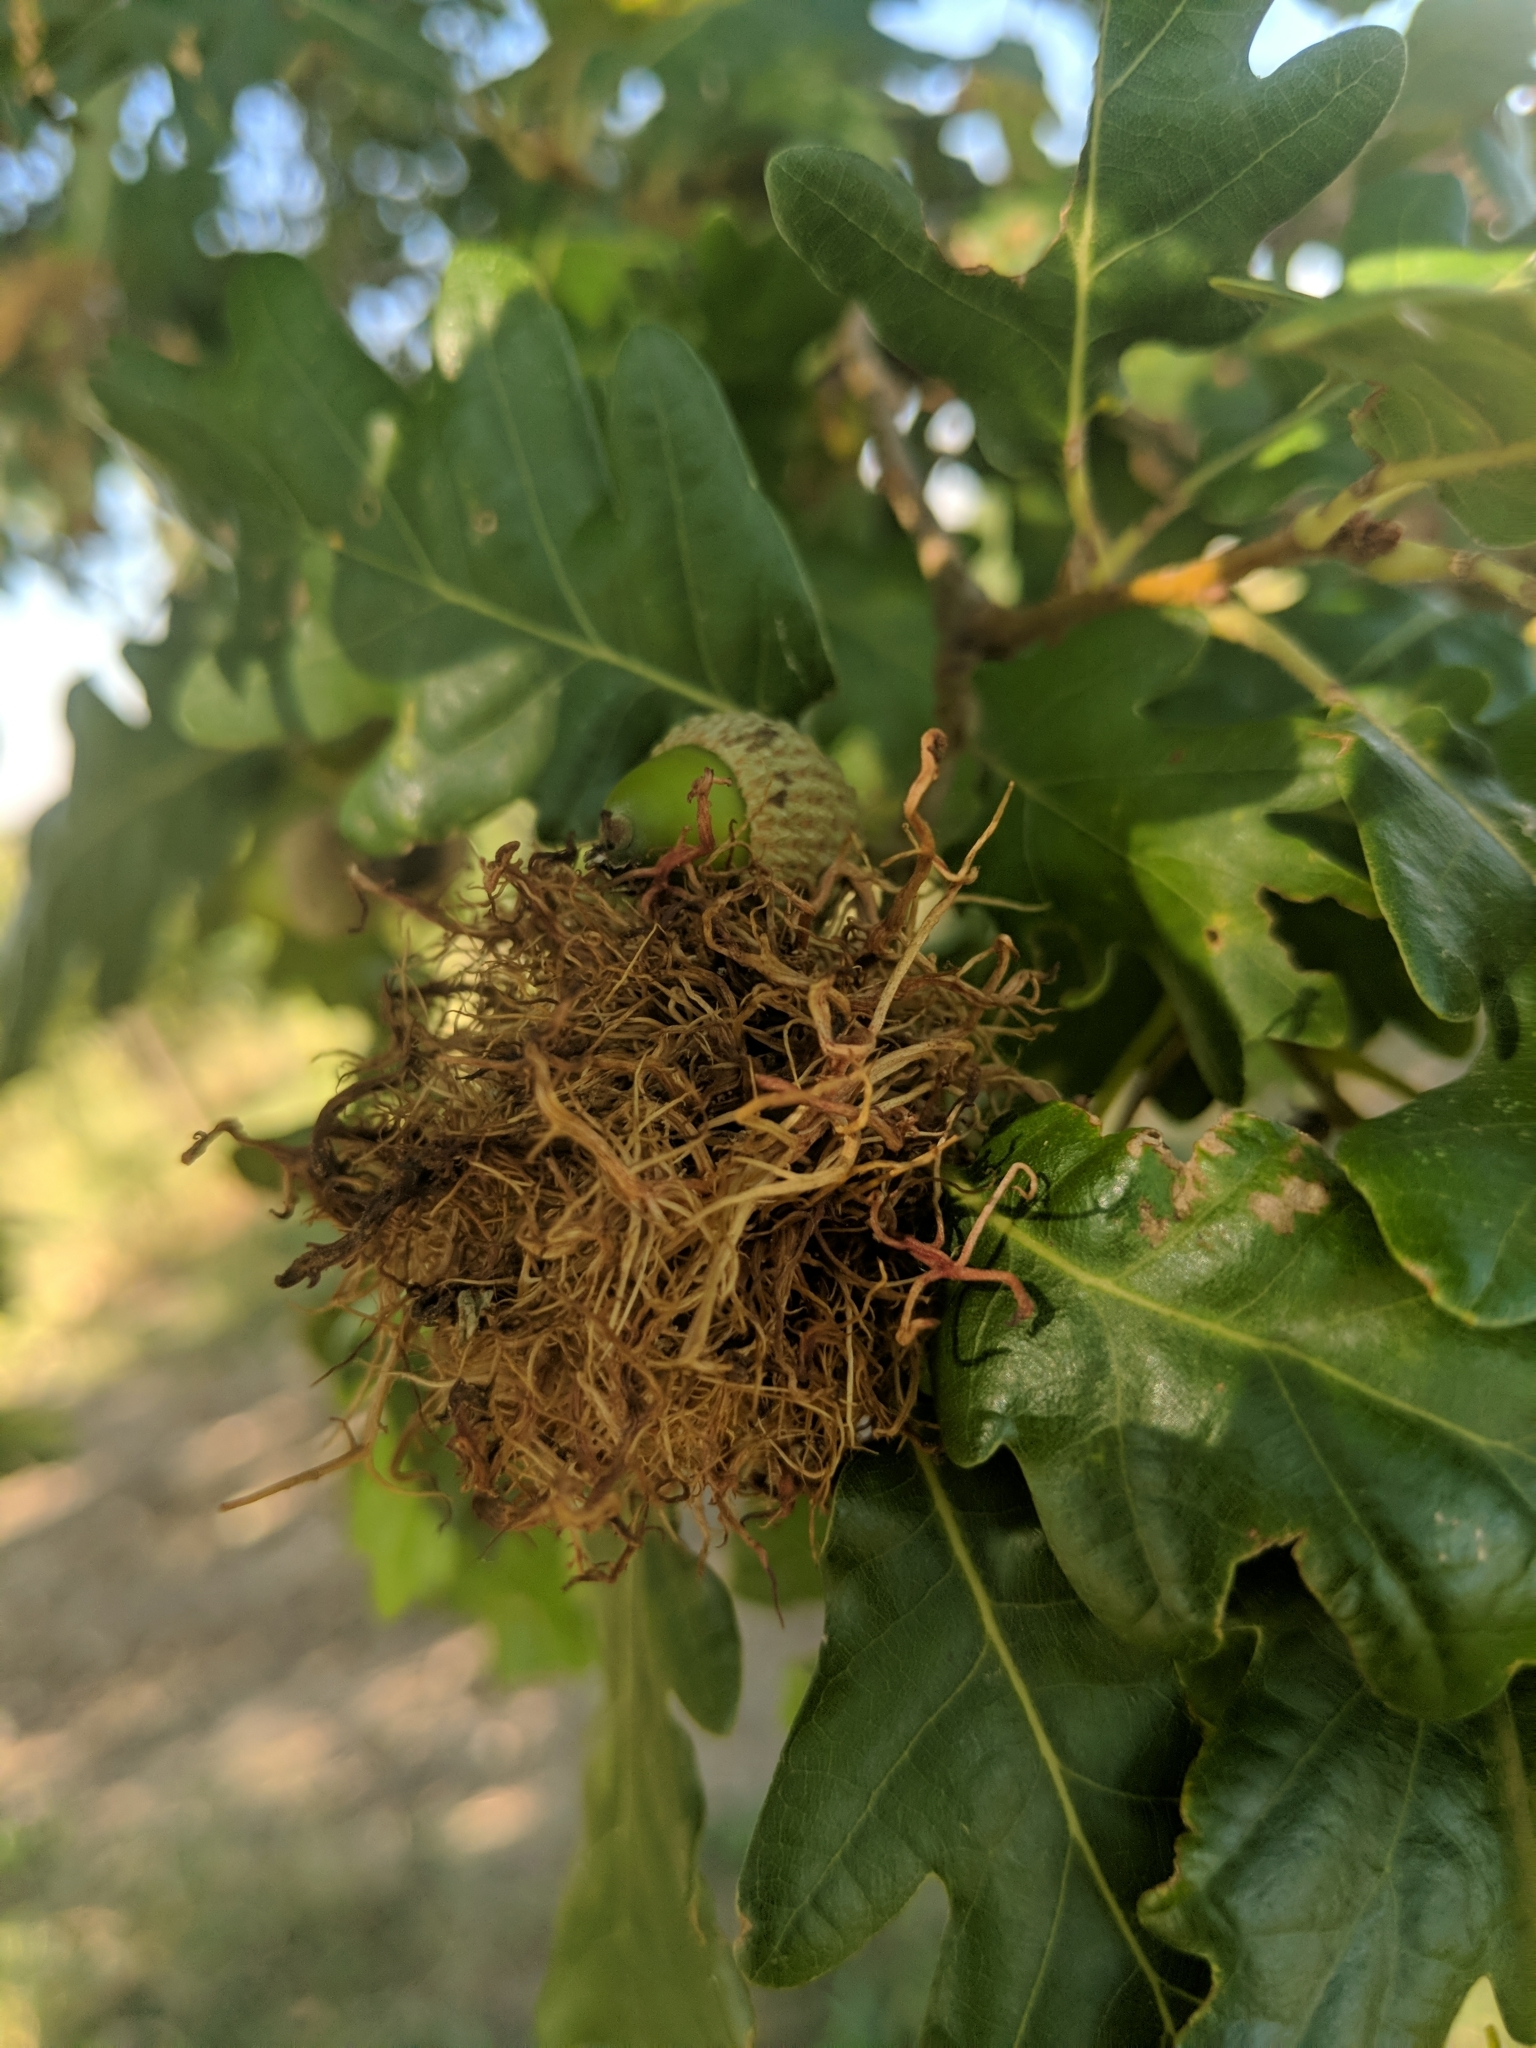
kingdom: Animalia
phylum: Arthropoda
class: Insecta
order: Hymenoptera
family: Cynipidae
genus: Andricus
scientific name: Andricus caputmedusae
